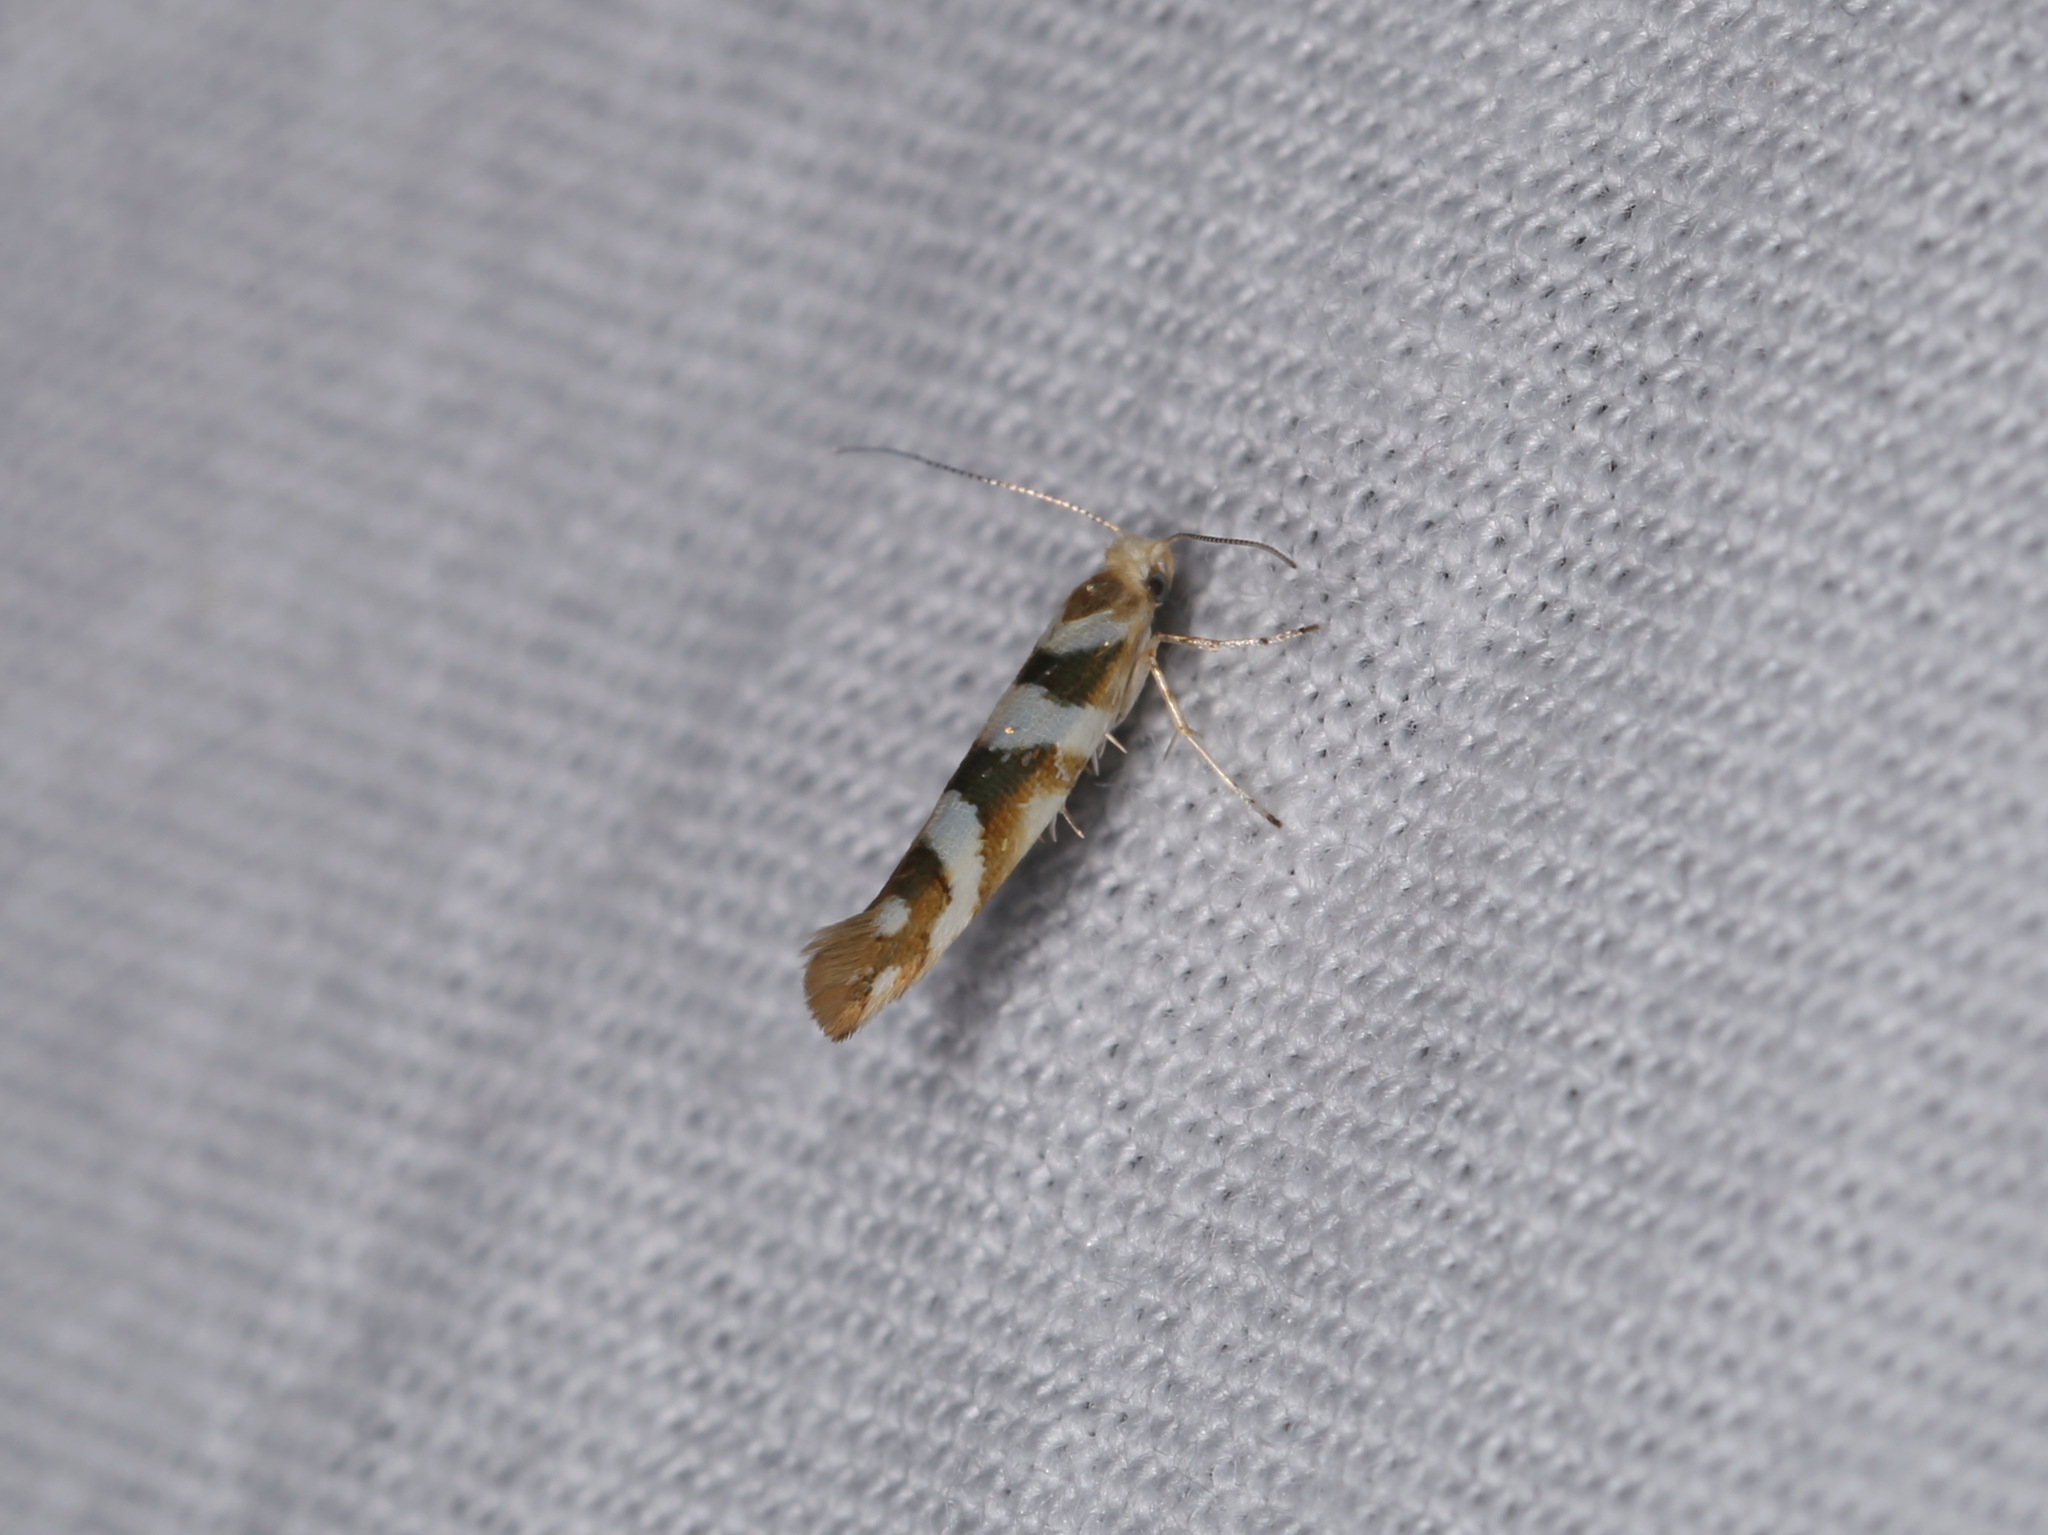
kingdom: Animalia
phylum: Arthropoda
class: Insecta
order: Lepidoptera
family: Argyresthiidae
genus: Argyresthia
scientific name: Argyresthia goedartella
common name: Golden argent
